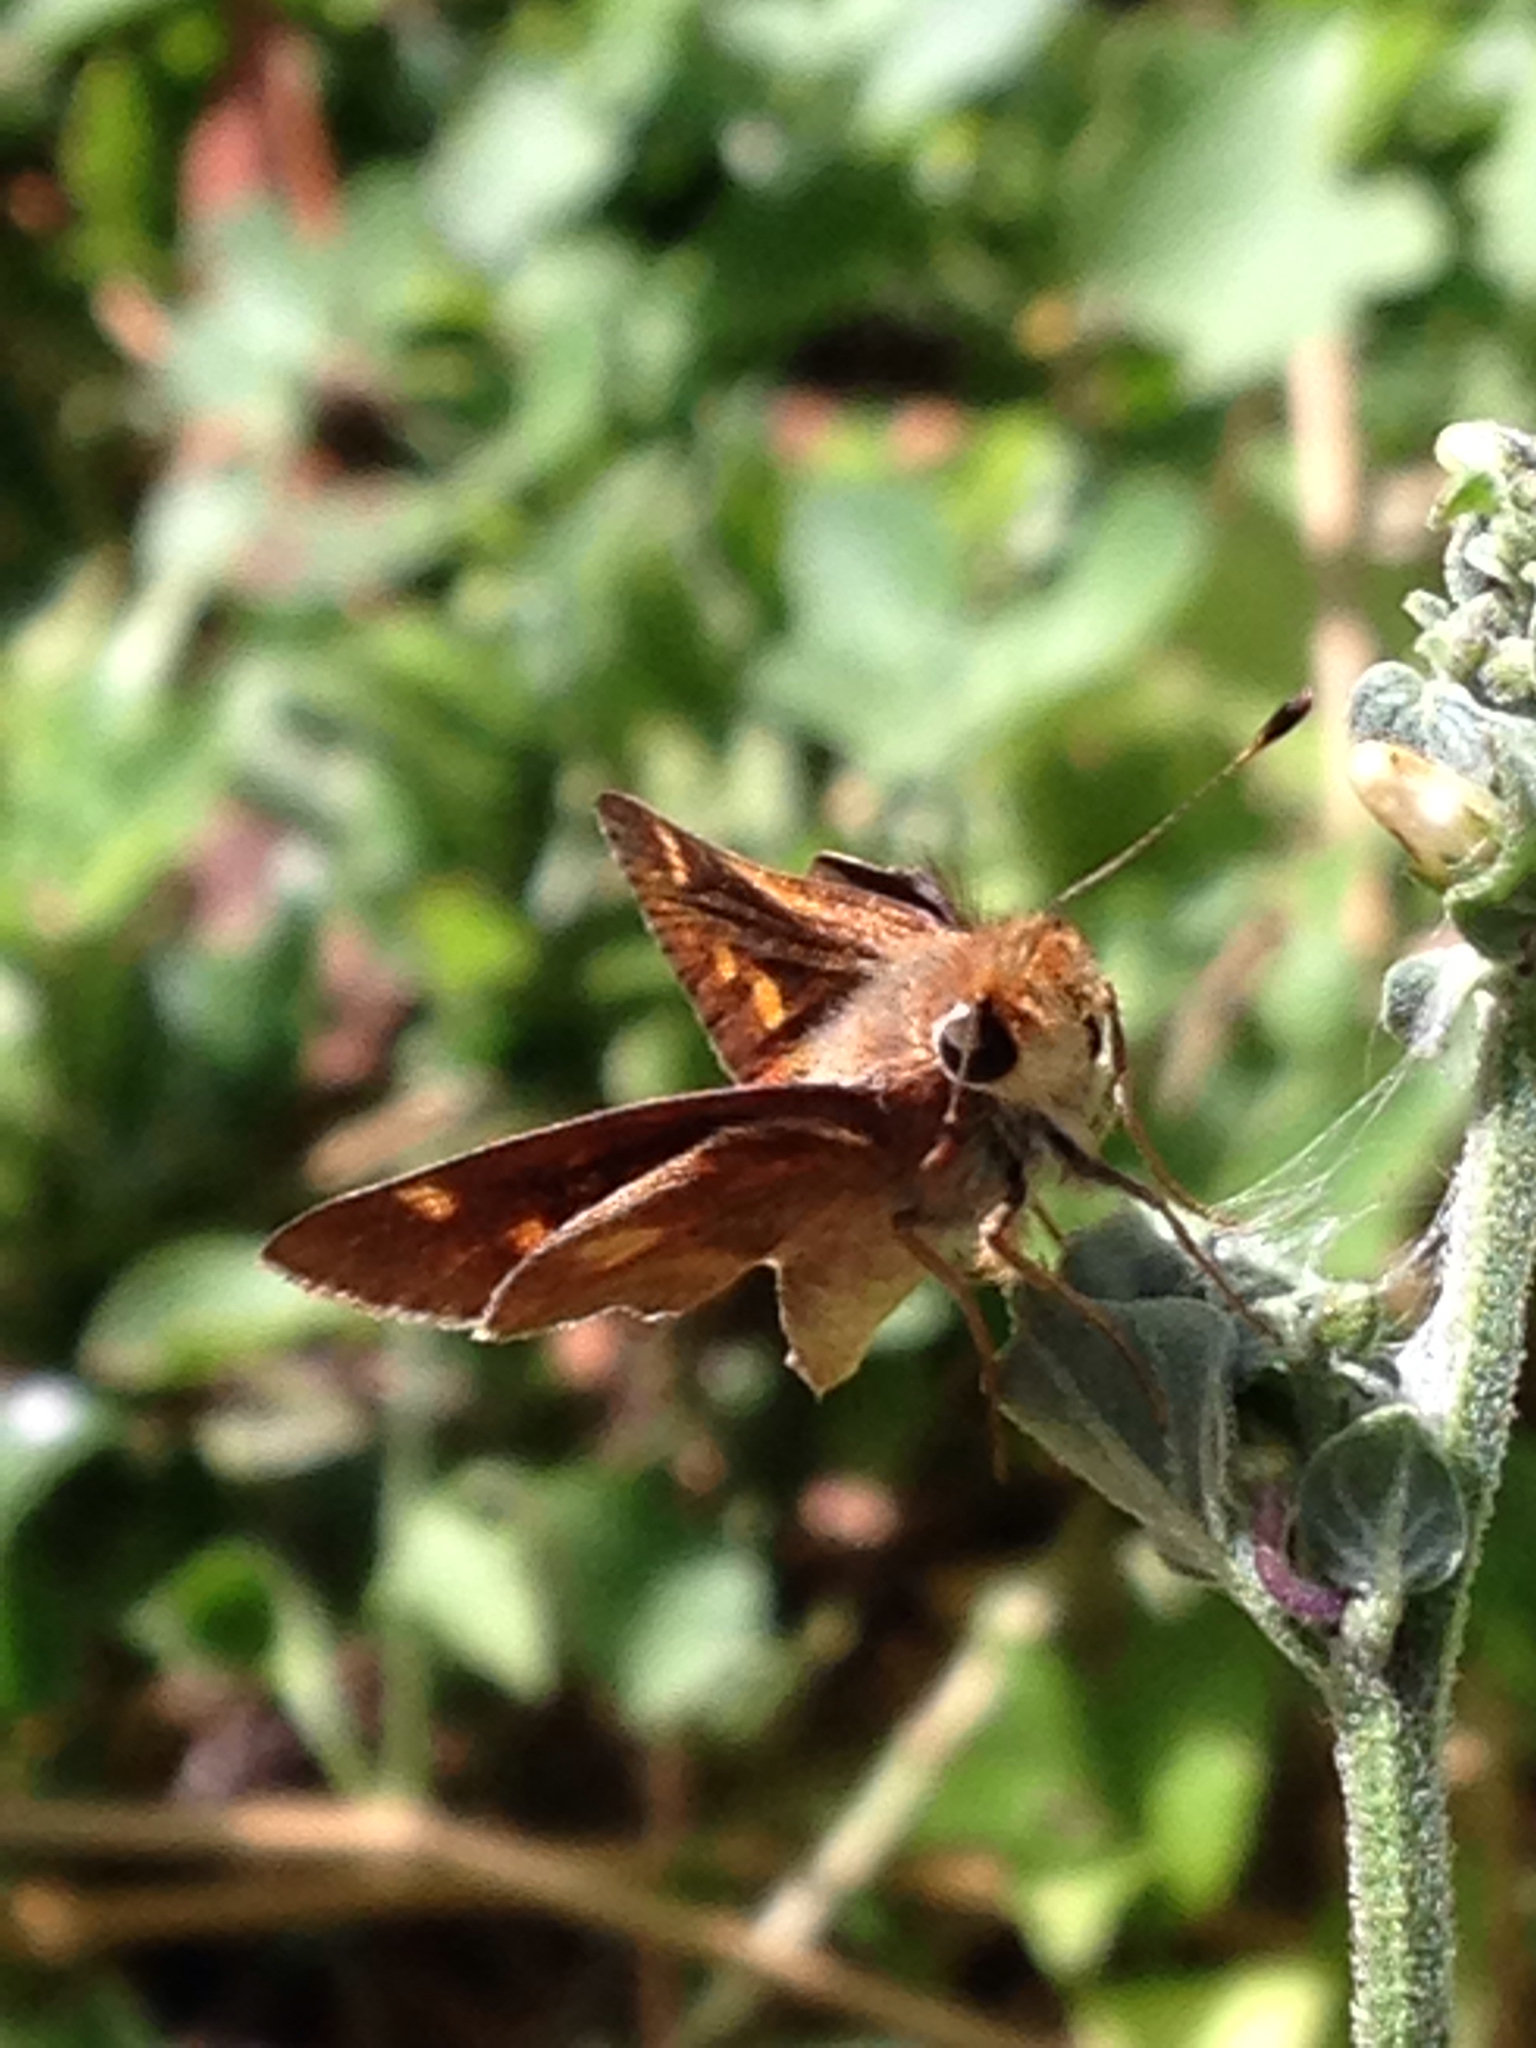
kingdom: Animalia
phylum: Arthropoda
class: Insecta
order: Lepidoptera
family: Hesperiidae
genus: Lon
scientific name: Lon melane
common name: Umber skipper
